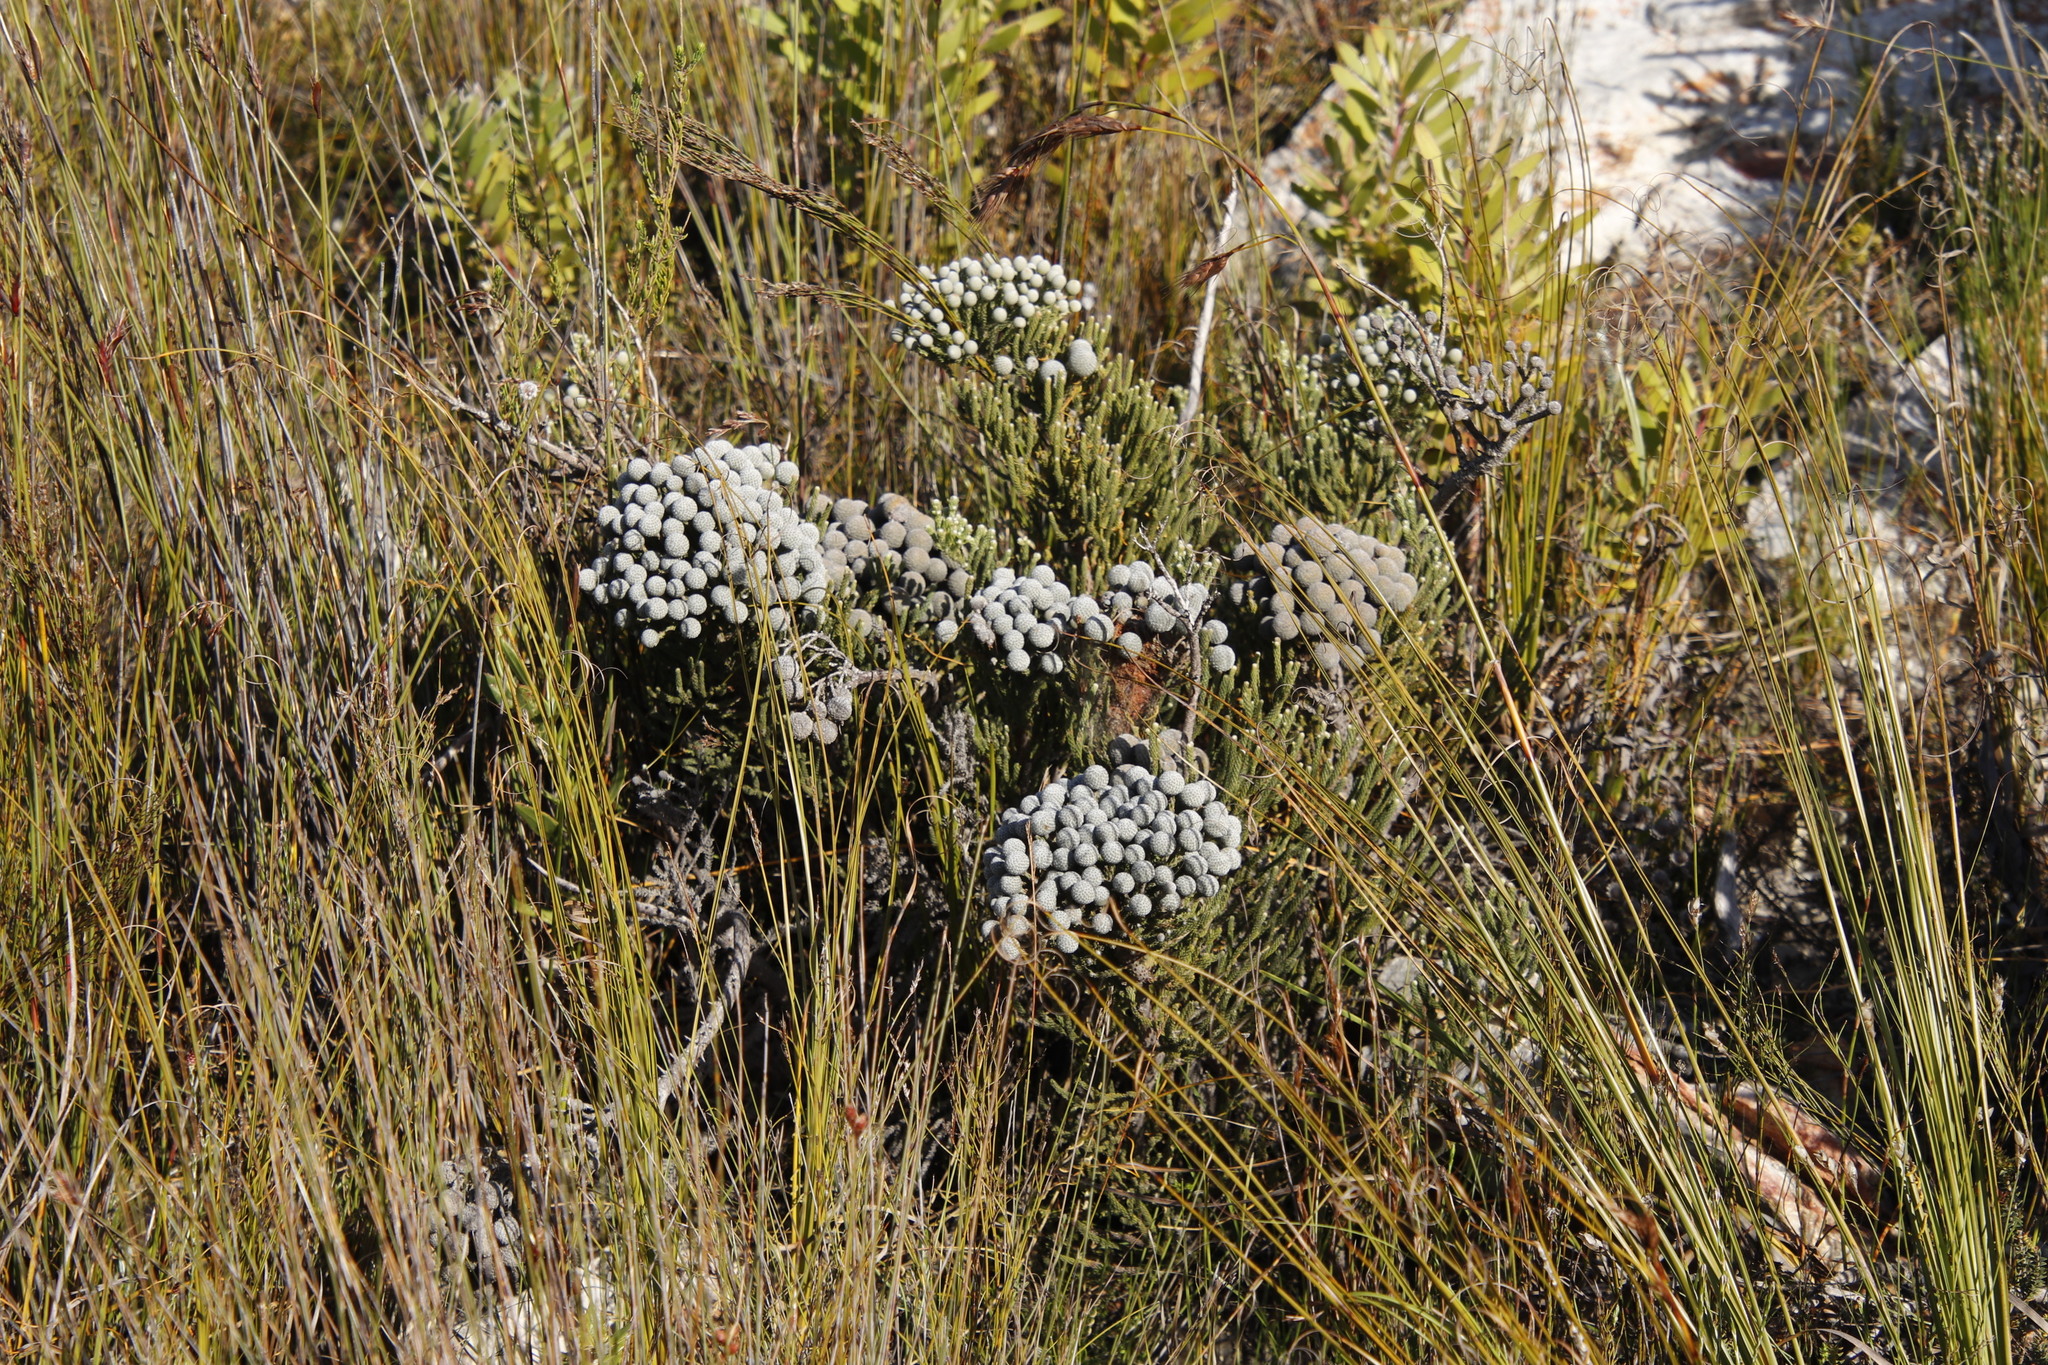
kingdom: Plantae
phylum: Tracheophyta
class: Magnoliopsida
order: Bruniales
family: Bruniaceae
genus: Brunia
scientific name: Brunia laevis
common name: Silver brunia
